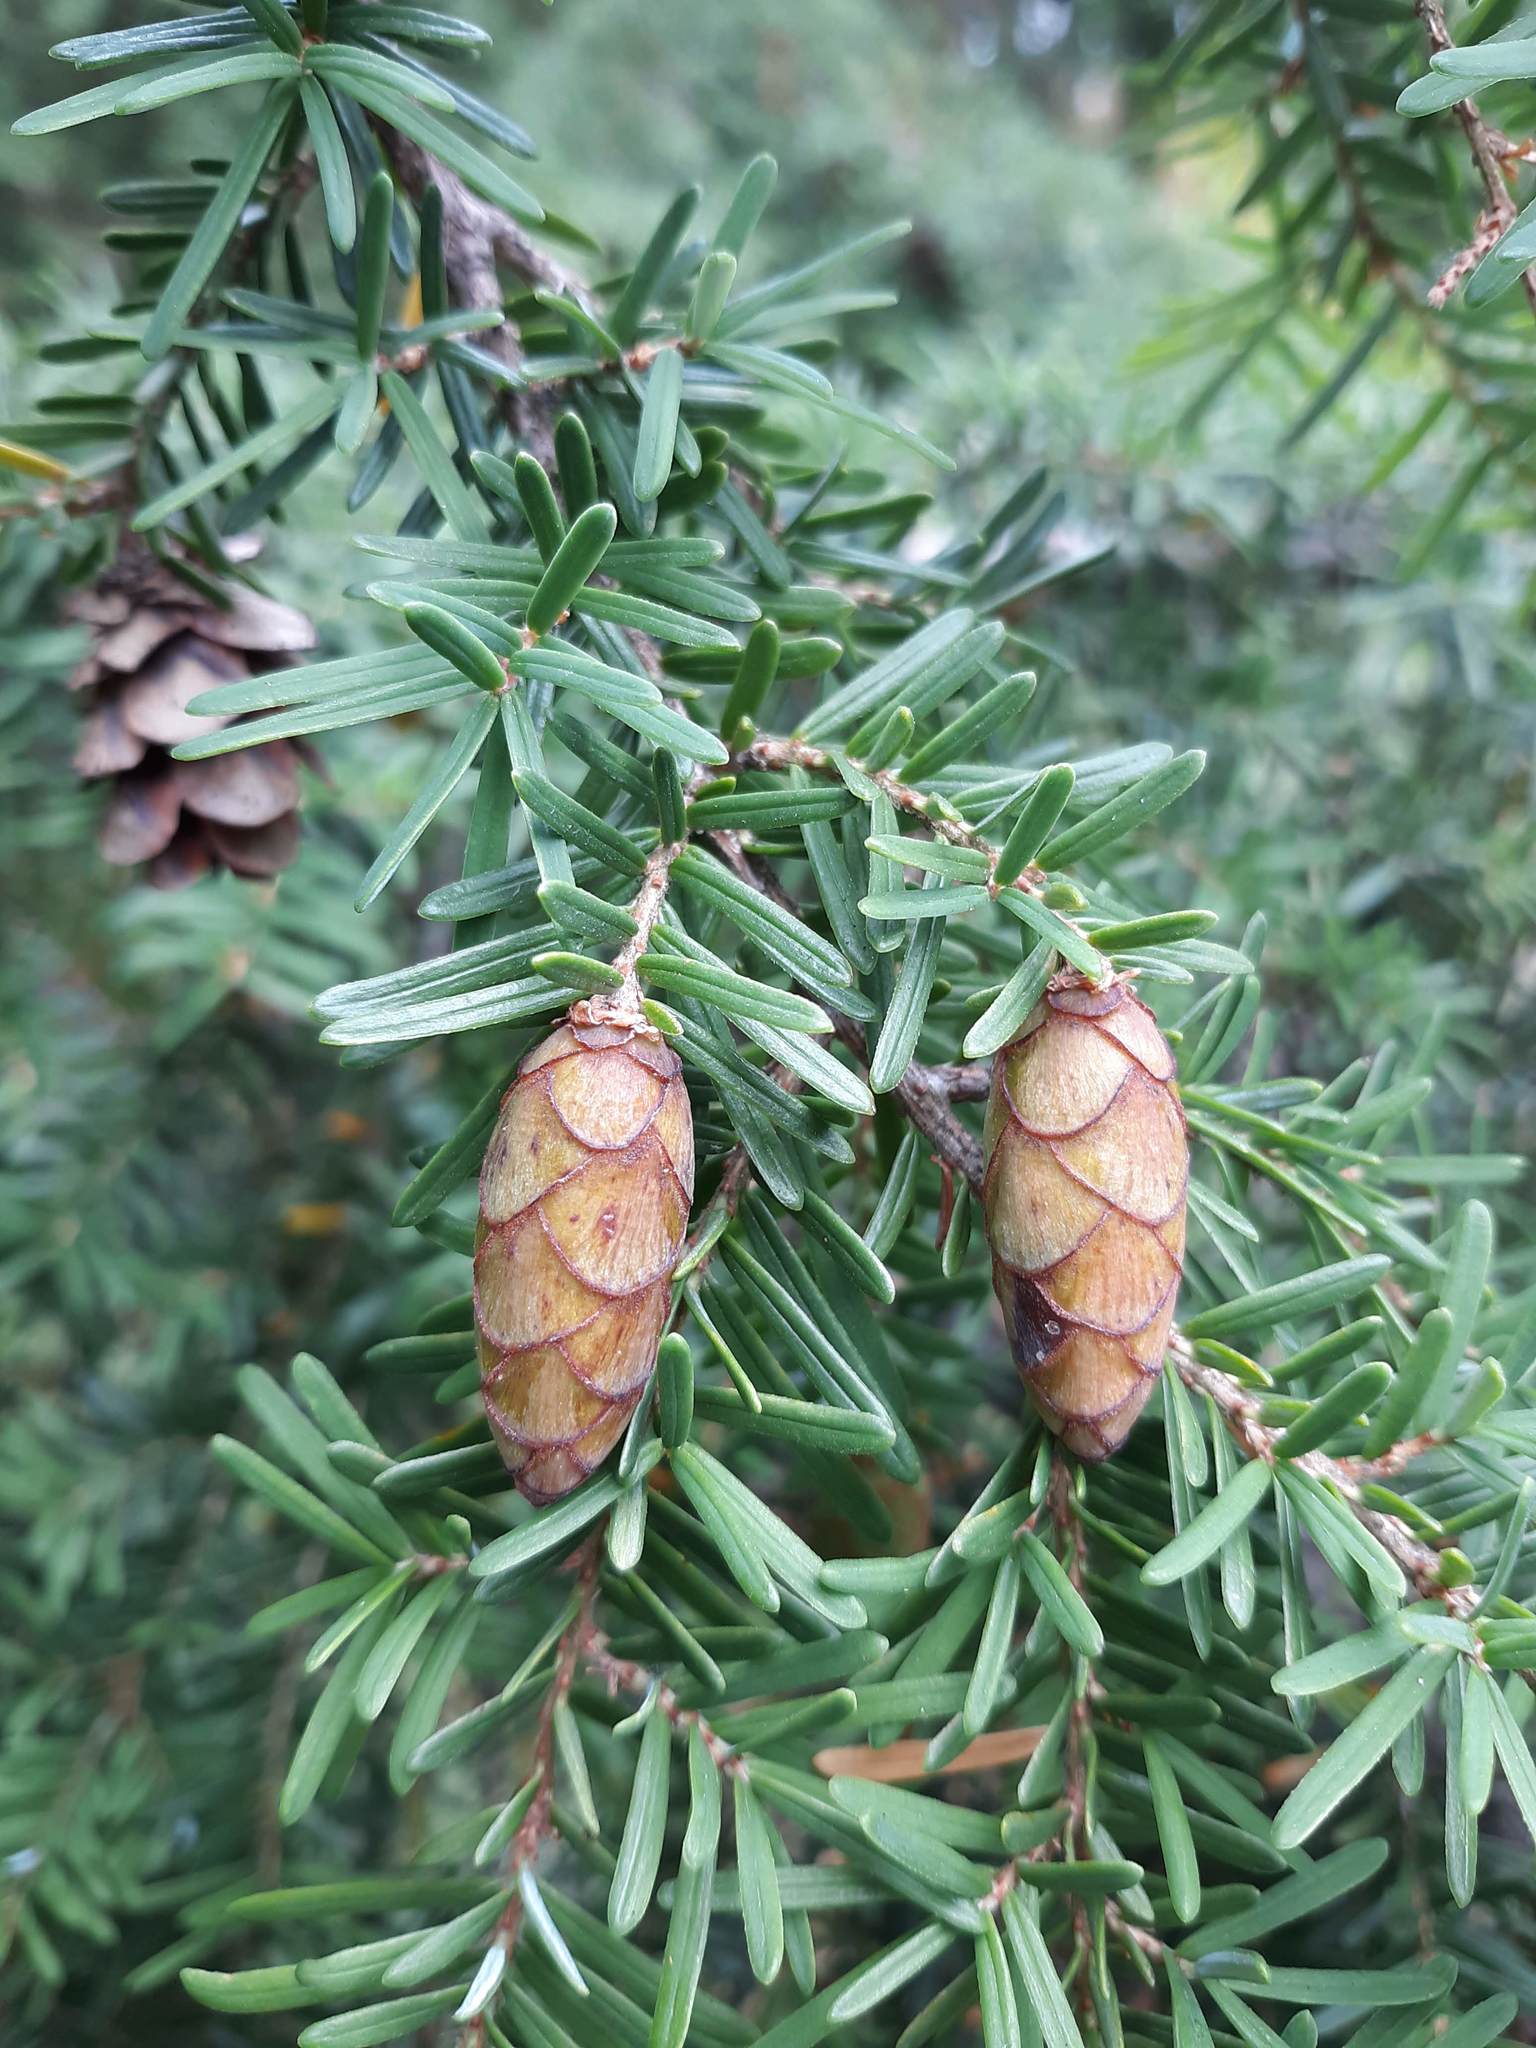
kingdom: Plantae
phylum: Tracheophyta
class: Pinopsida
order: Pinales
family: Pinaceae
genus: Tsuga
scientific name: Tsuga heterophylla
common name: Western hemlock
